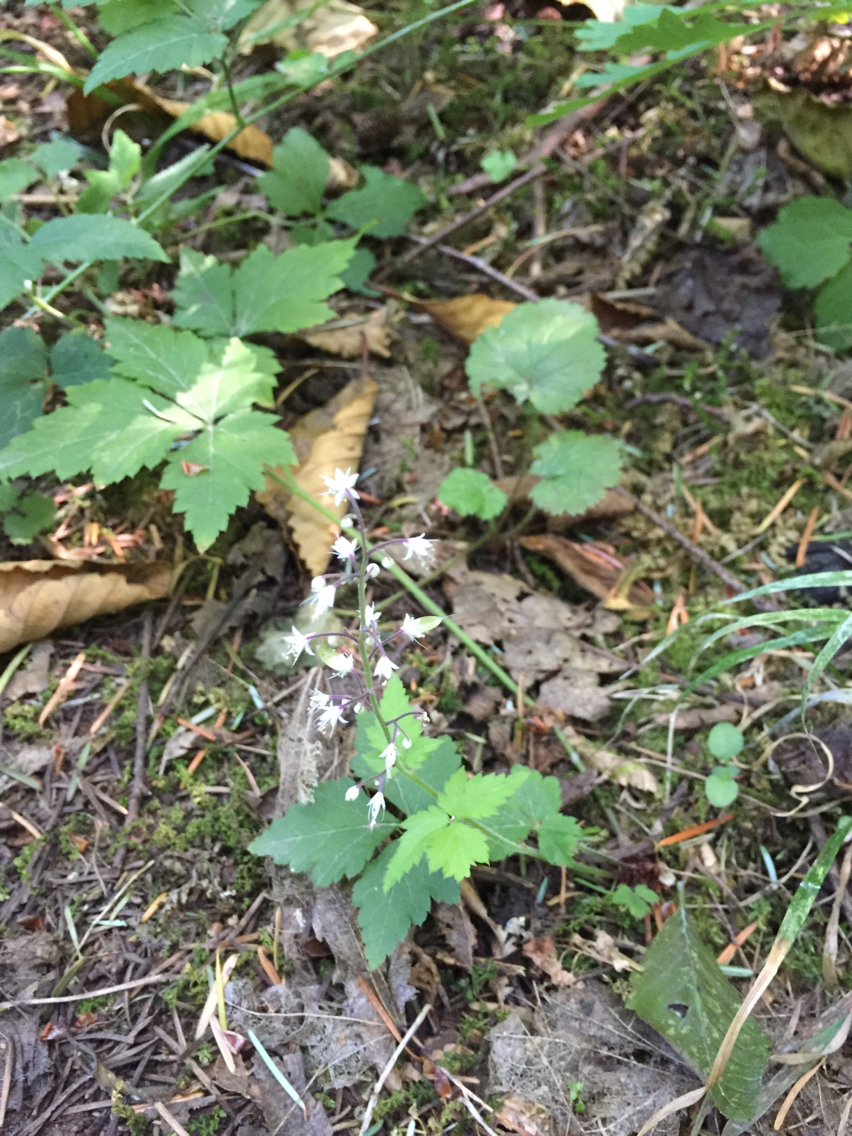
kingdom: Plantae
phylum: Tracheophyta
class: Magnoliopsida
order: Saxifragales
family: Saxifragaceae
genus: Tiarella
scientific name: Tiarella trifoliata
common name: Sugar-scoop
